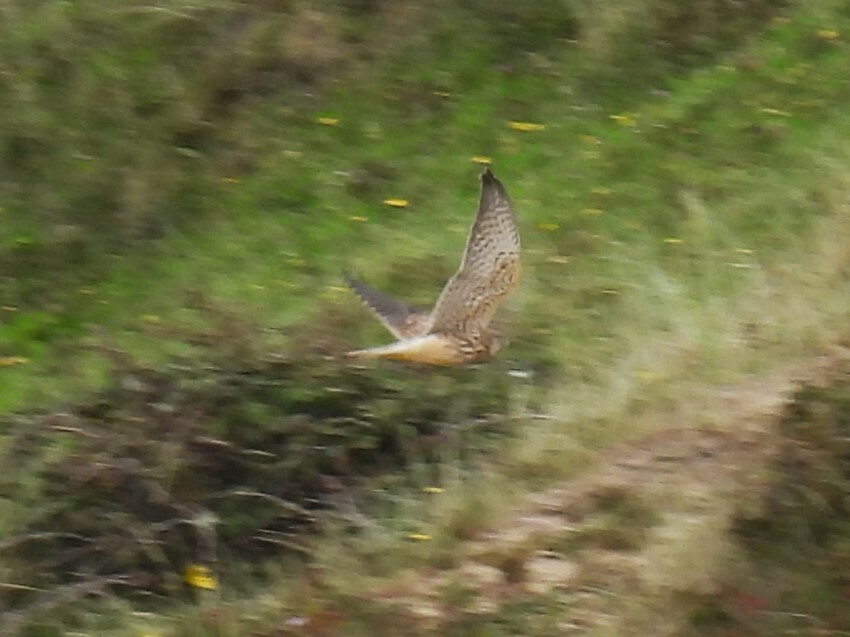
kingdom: Animalia
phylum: Chordata
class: Aves
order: Falconiformes
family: Falconidae
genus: Falco
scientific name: Falco tinnunculus
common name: Common kestrel
